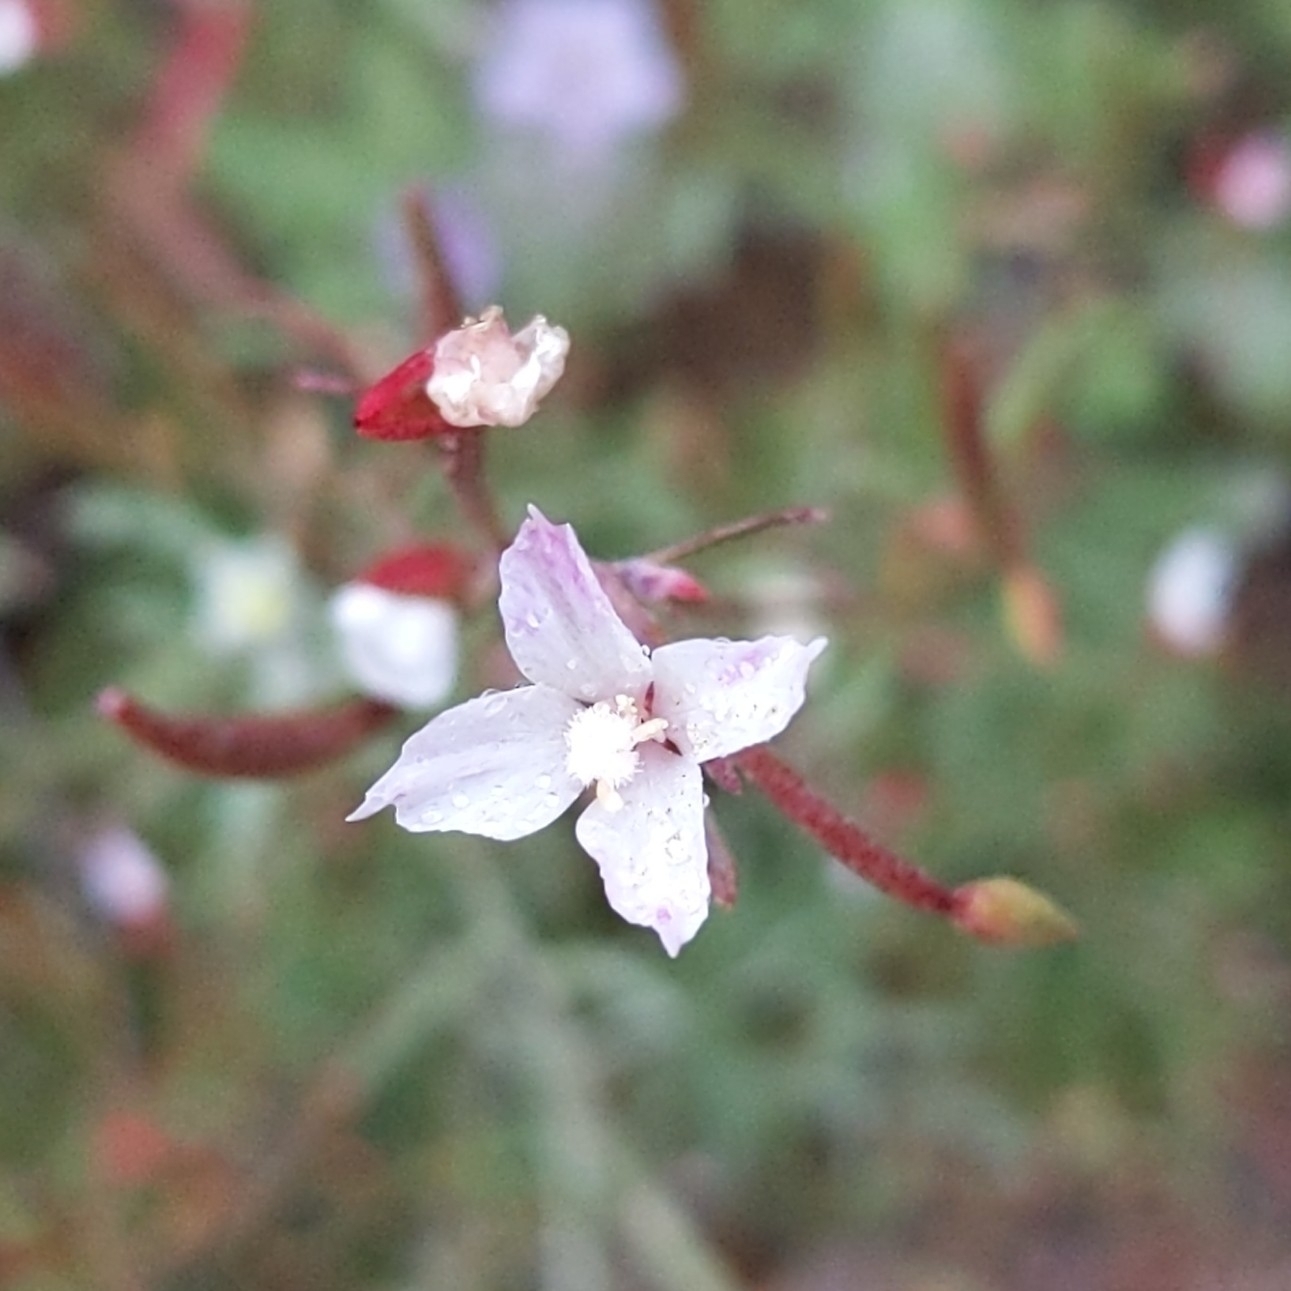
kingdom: Plantae
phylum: Tracheophyta
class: Magnoliopsida
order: Myrtales
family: Onagraceae
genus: Clarkia
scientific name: Clarkia epilobioides
